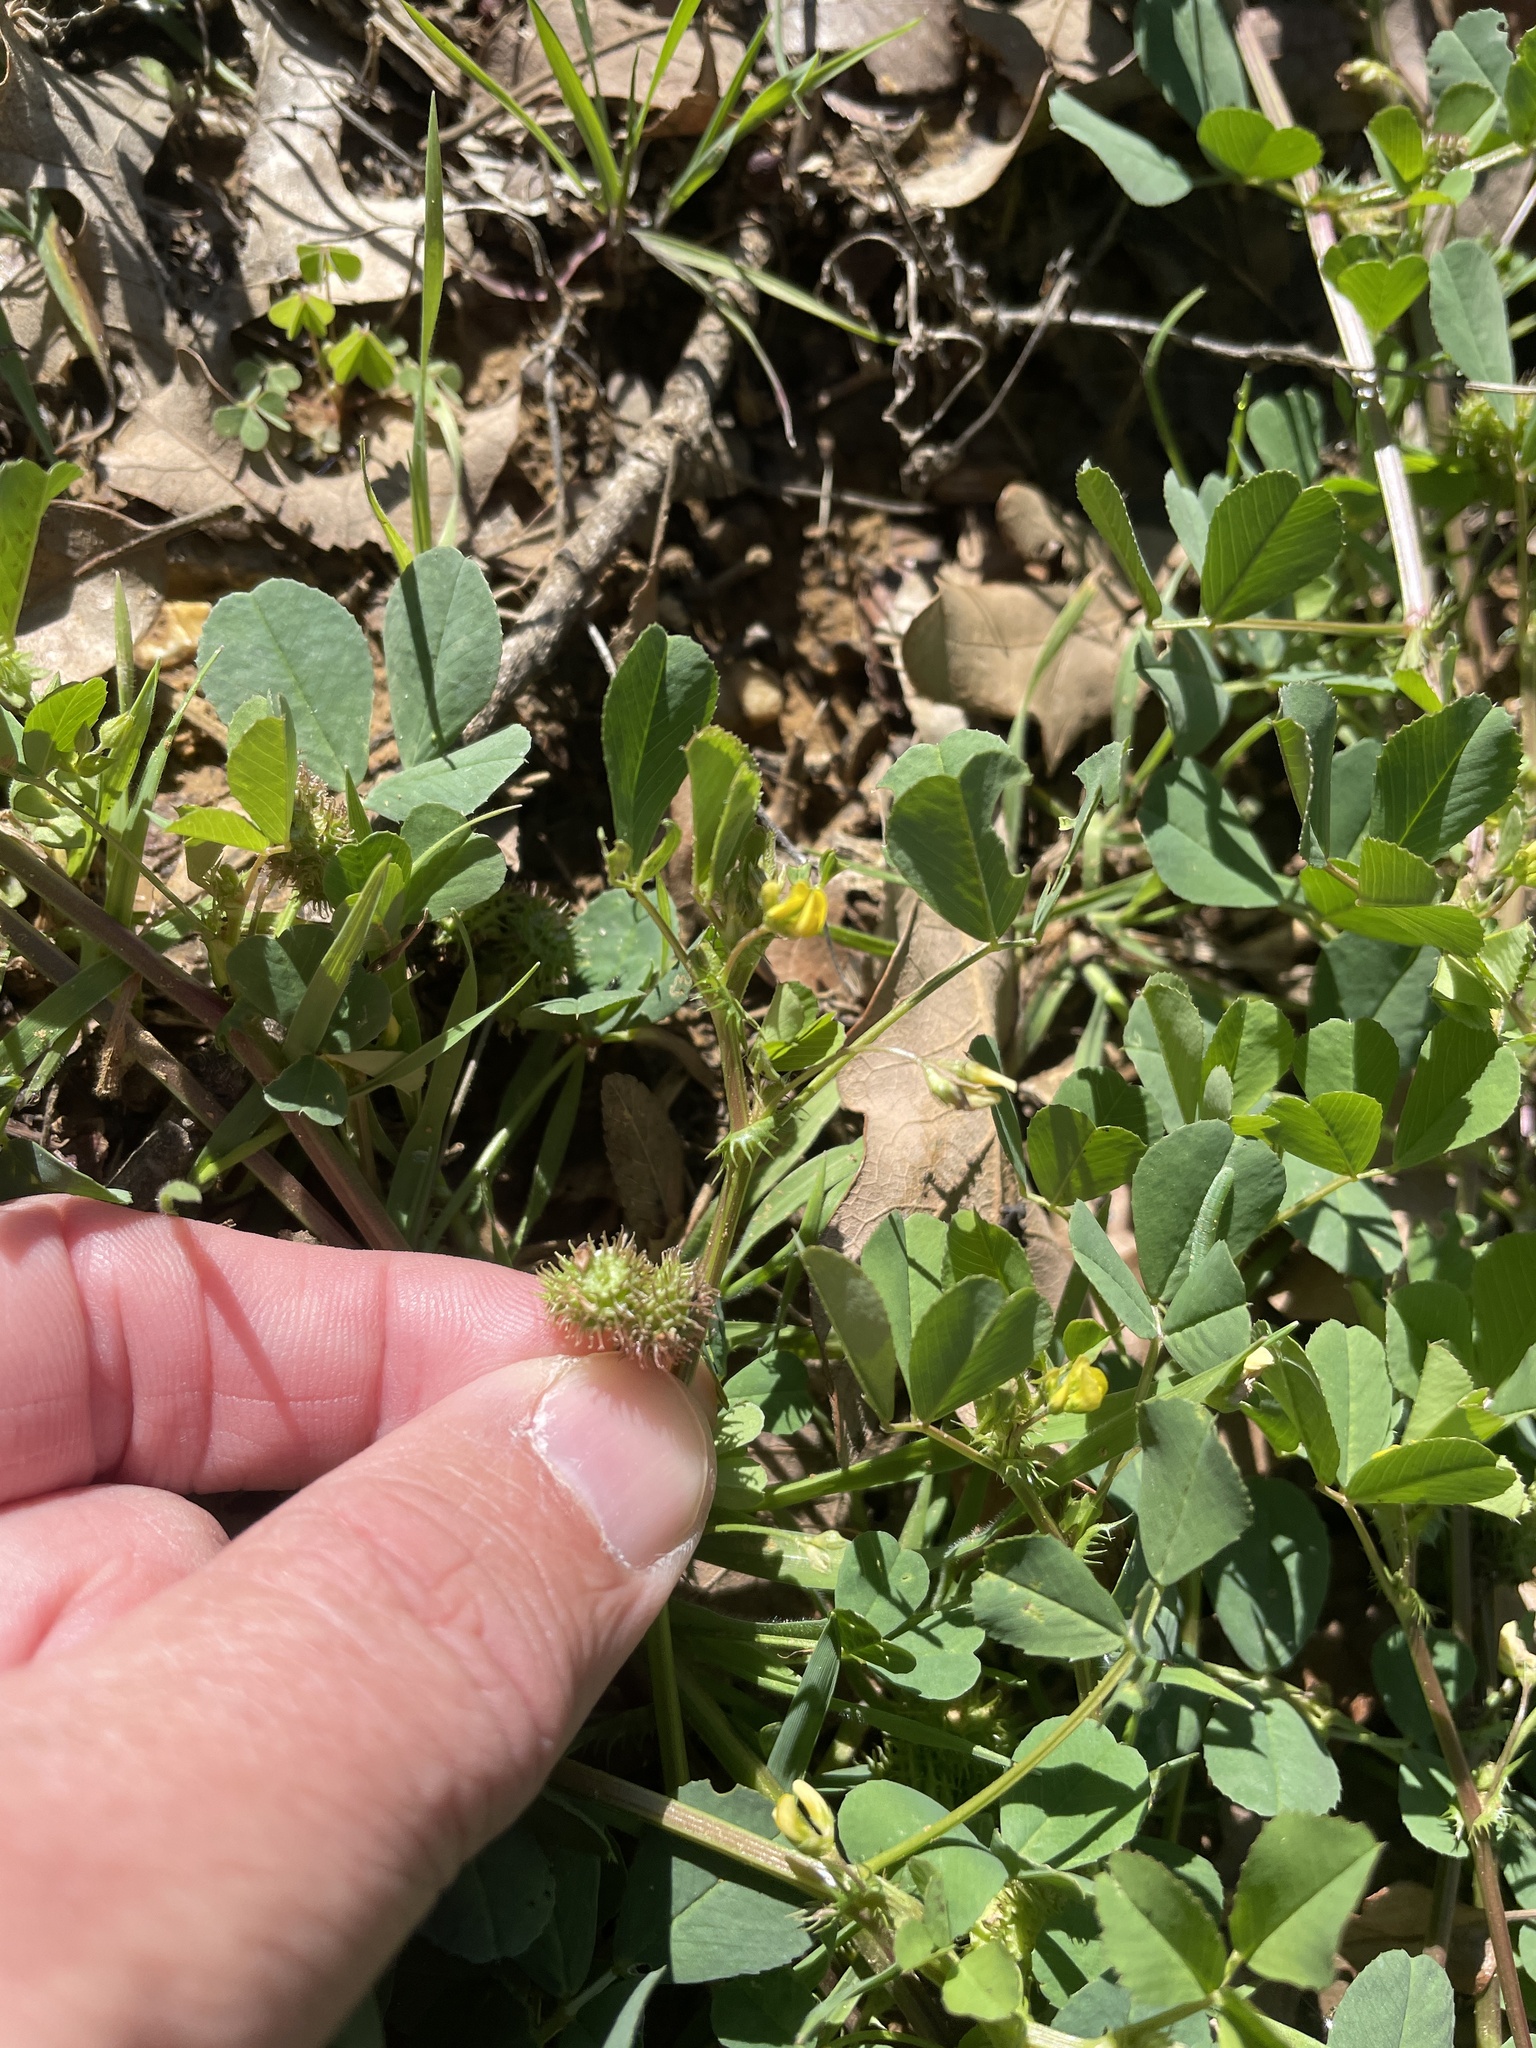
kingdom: Plantae
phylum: Tracheophyta
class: Magnoliopsida
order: Fabales
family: Fabaceae
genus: Medicago
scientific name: Medicago polymorpha
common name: Burclover
